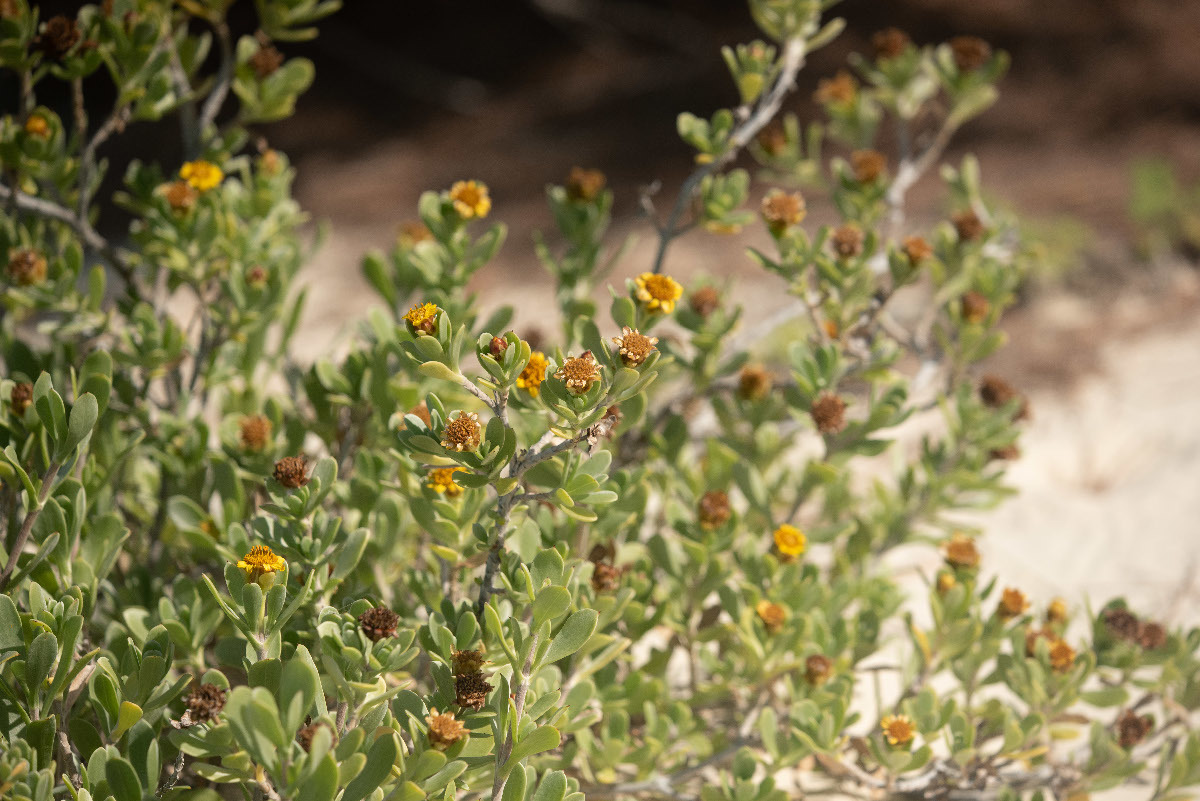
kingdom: Plantae
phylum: Tracheophyta
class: Magnoliopsida
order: Asterales
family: Asteraceae
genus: Borrichia
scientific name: Borrichia arborescens
